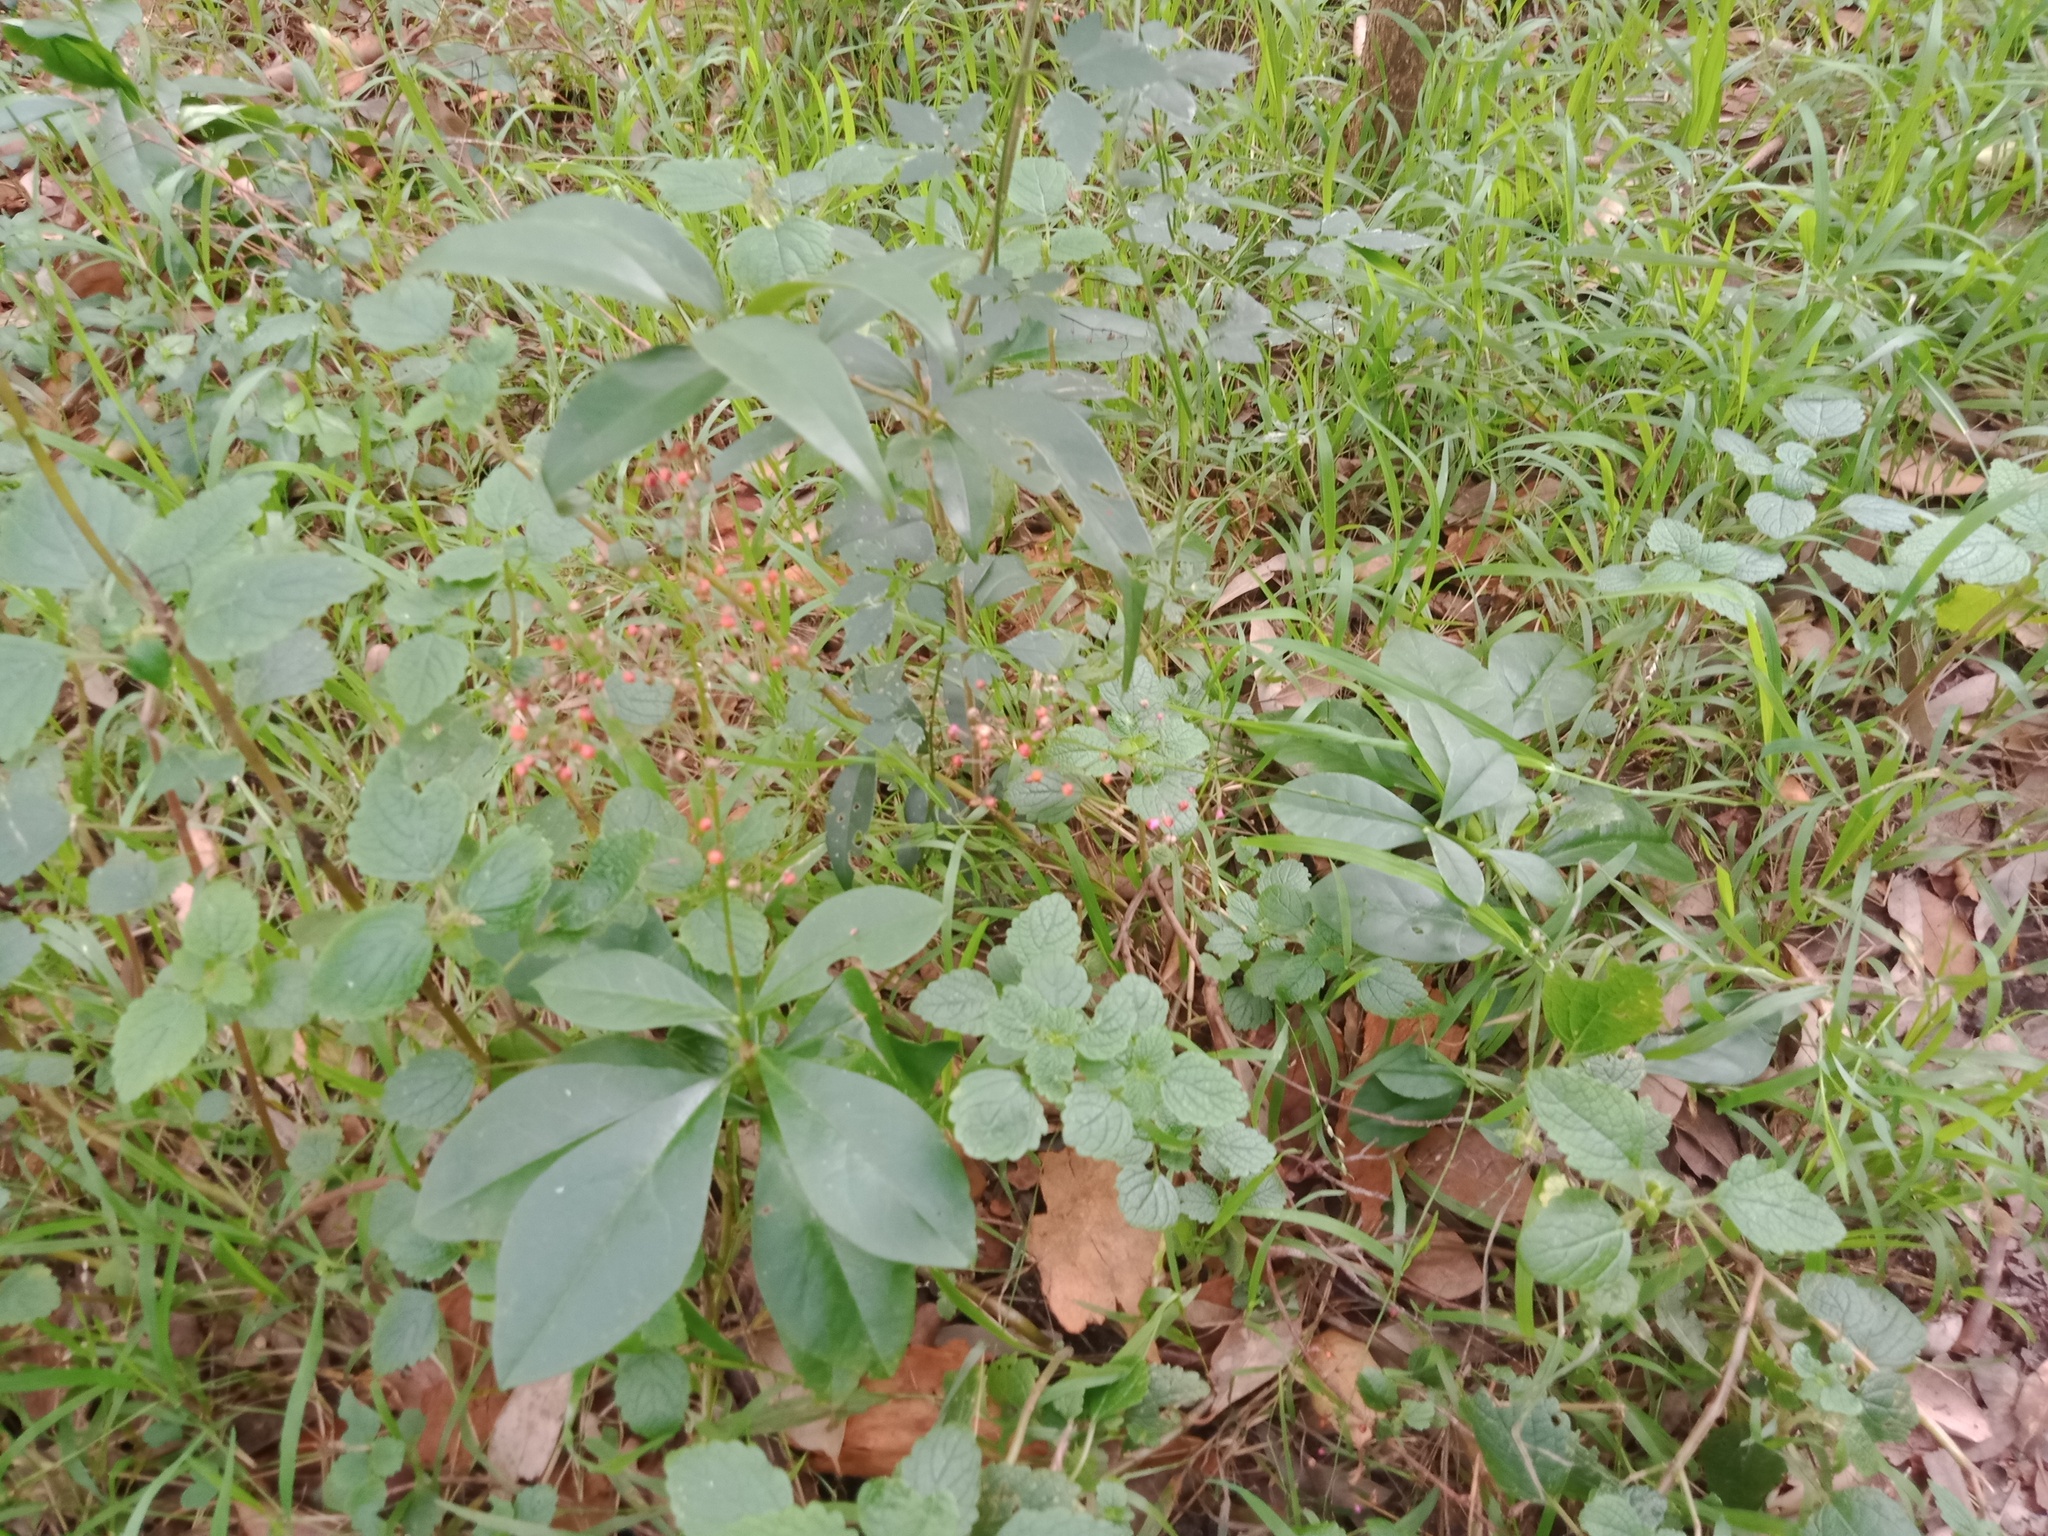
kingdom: Plantae
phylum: Tracheophyta
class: Magnoliopsida
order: Caryophyllales
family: Talinaceae
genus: Talinum
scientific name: Talinum paniculatum
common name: Jewels of opar
